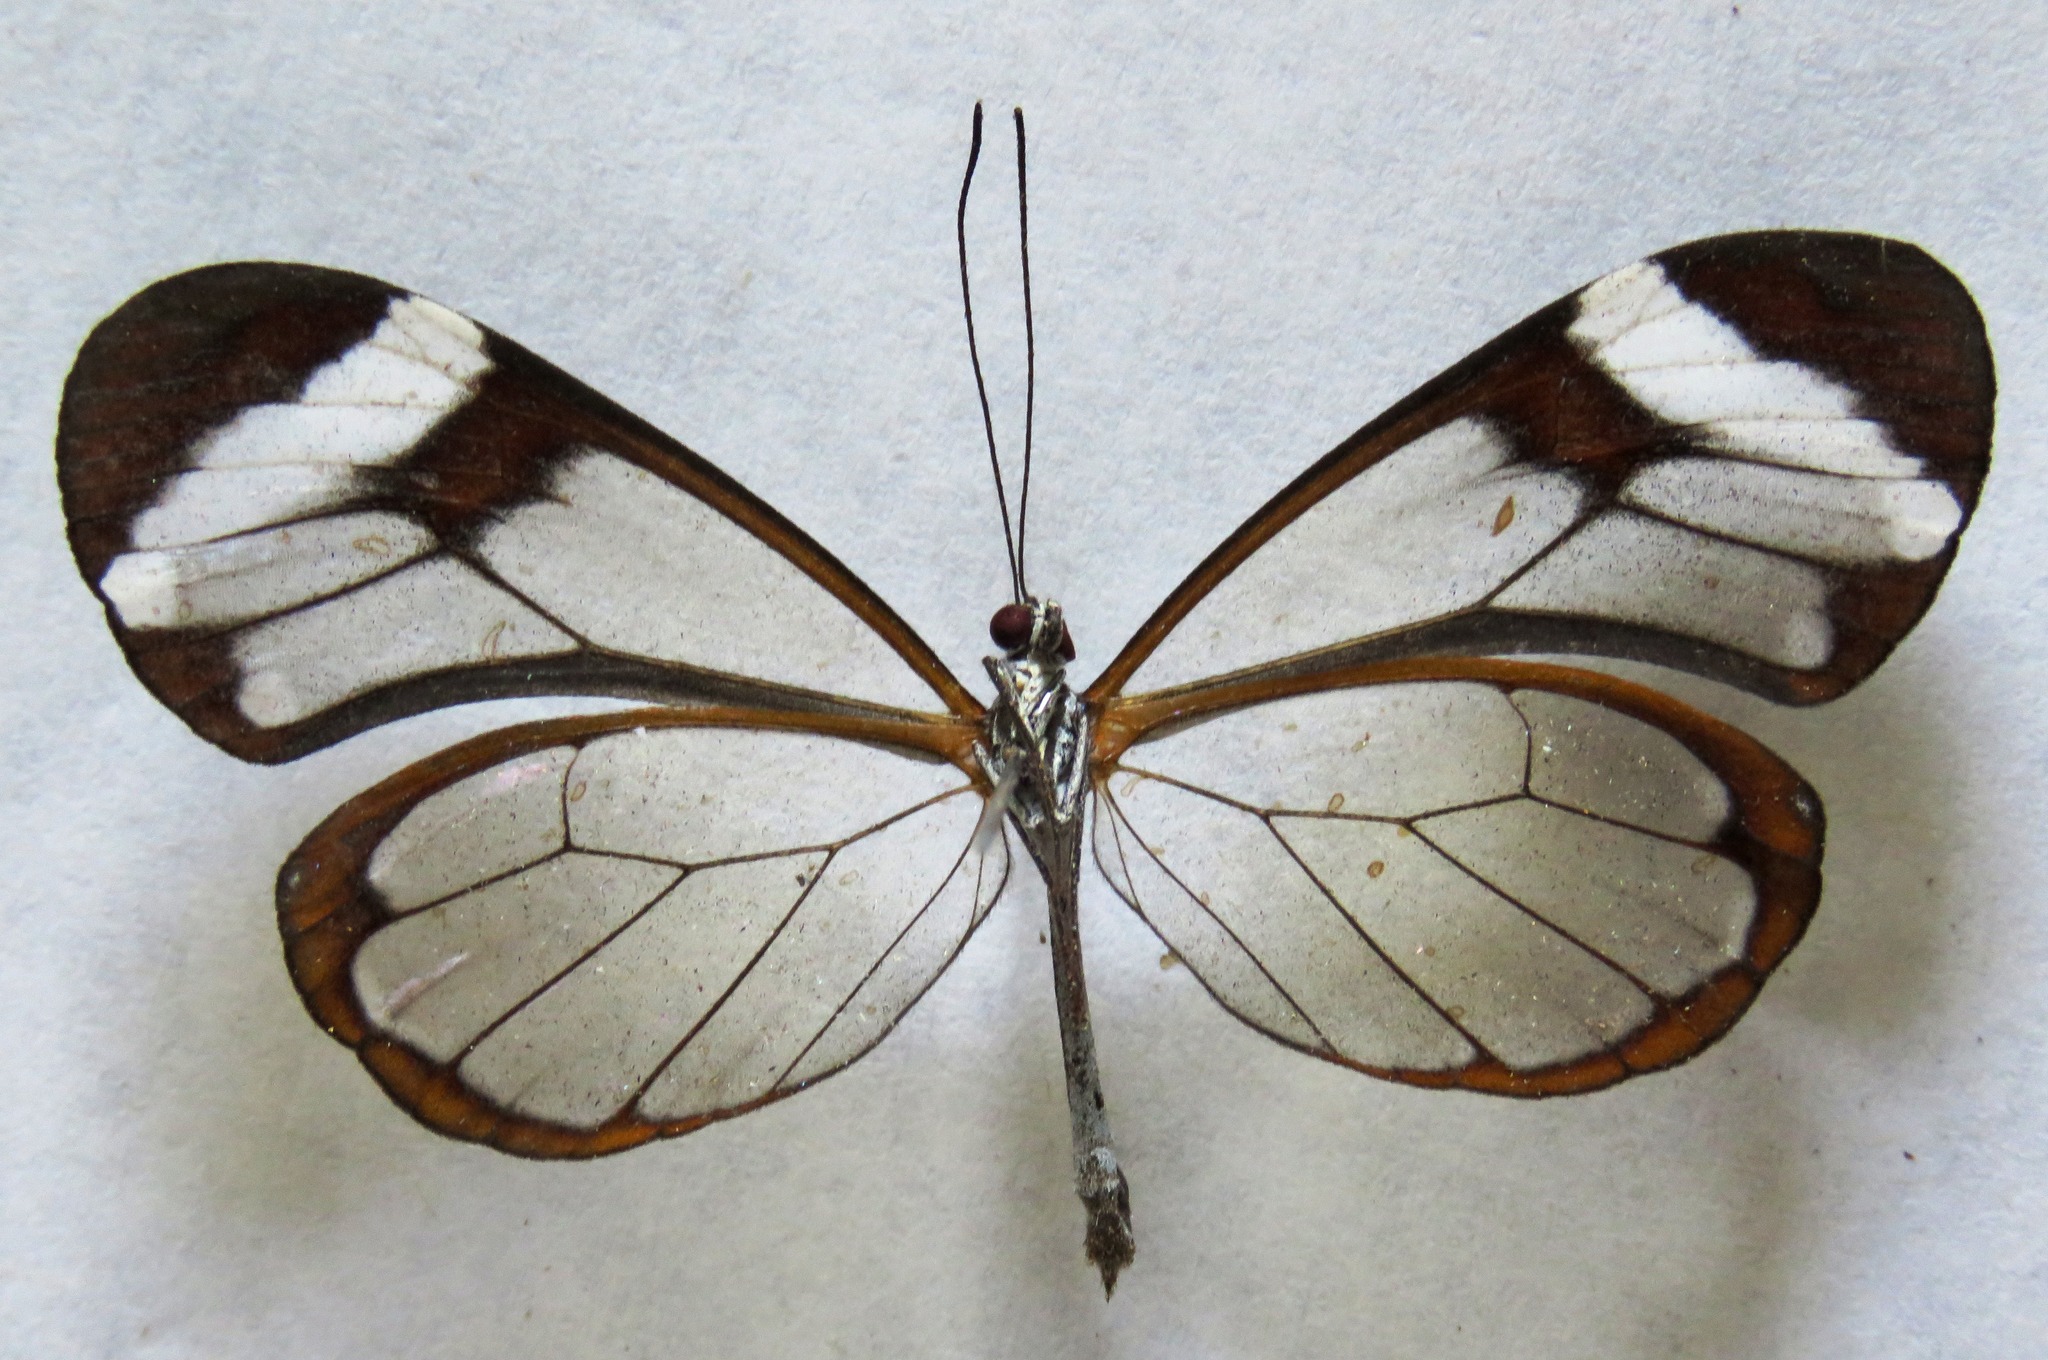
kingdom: Animalia
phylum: Arthropoda
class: Insecta
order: Lepidoptera
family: Nymphalidae
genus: Greta
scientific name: Greta morgane
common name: Thick-tipped greta
